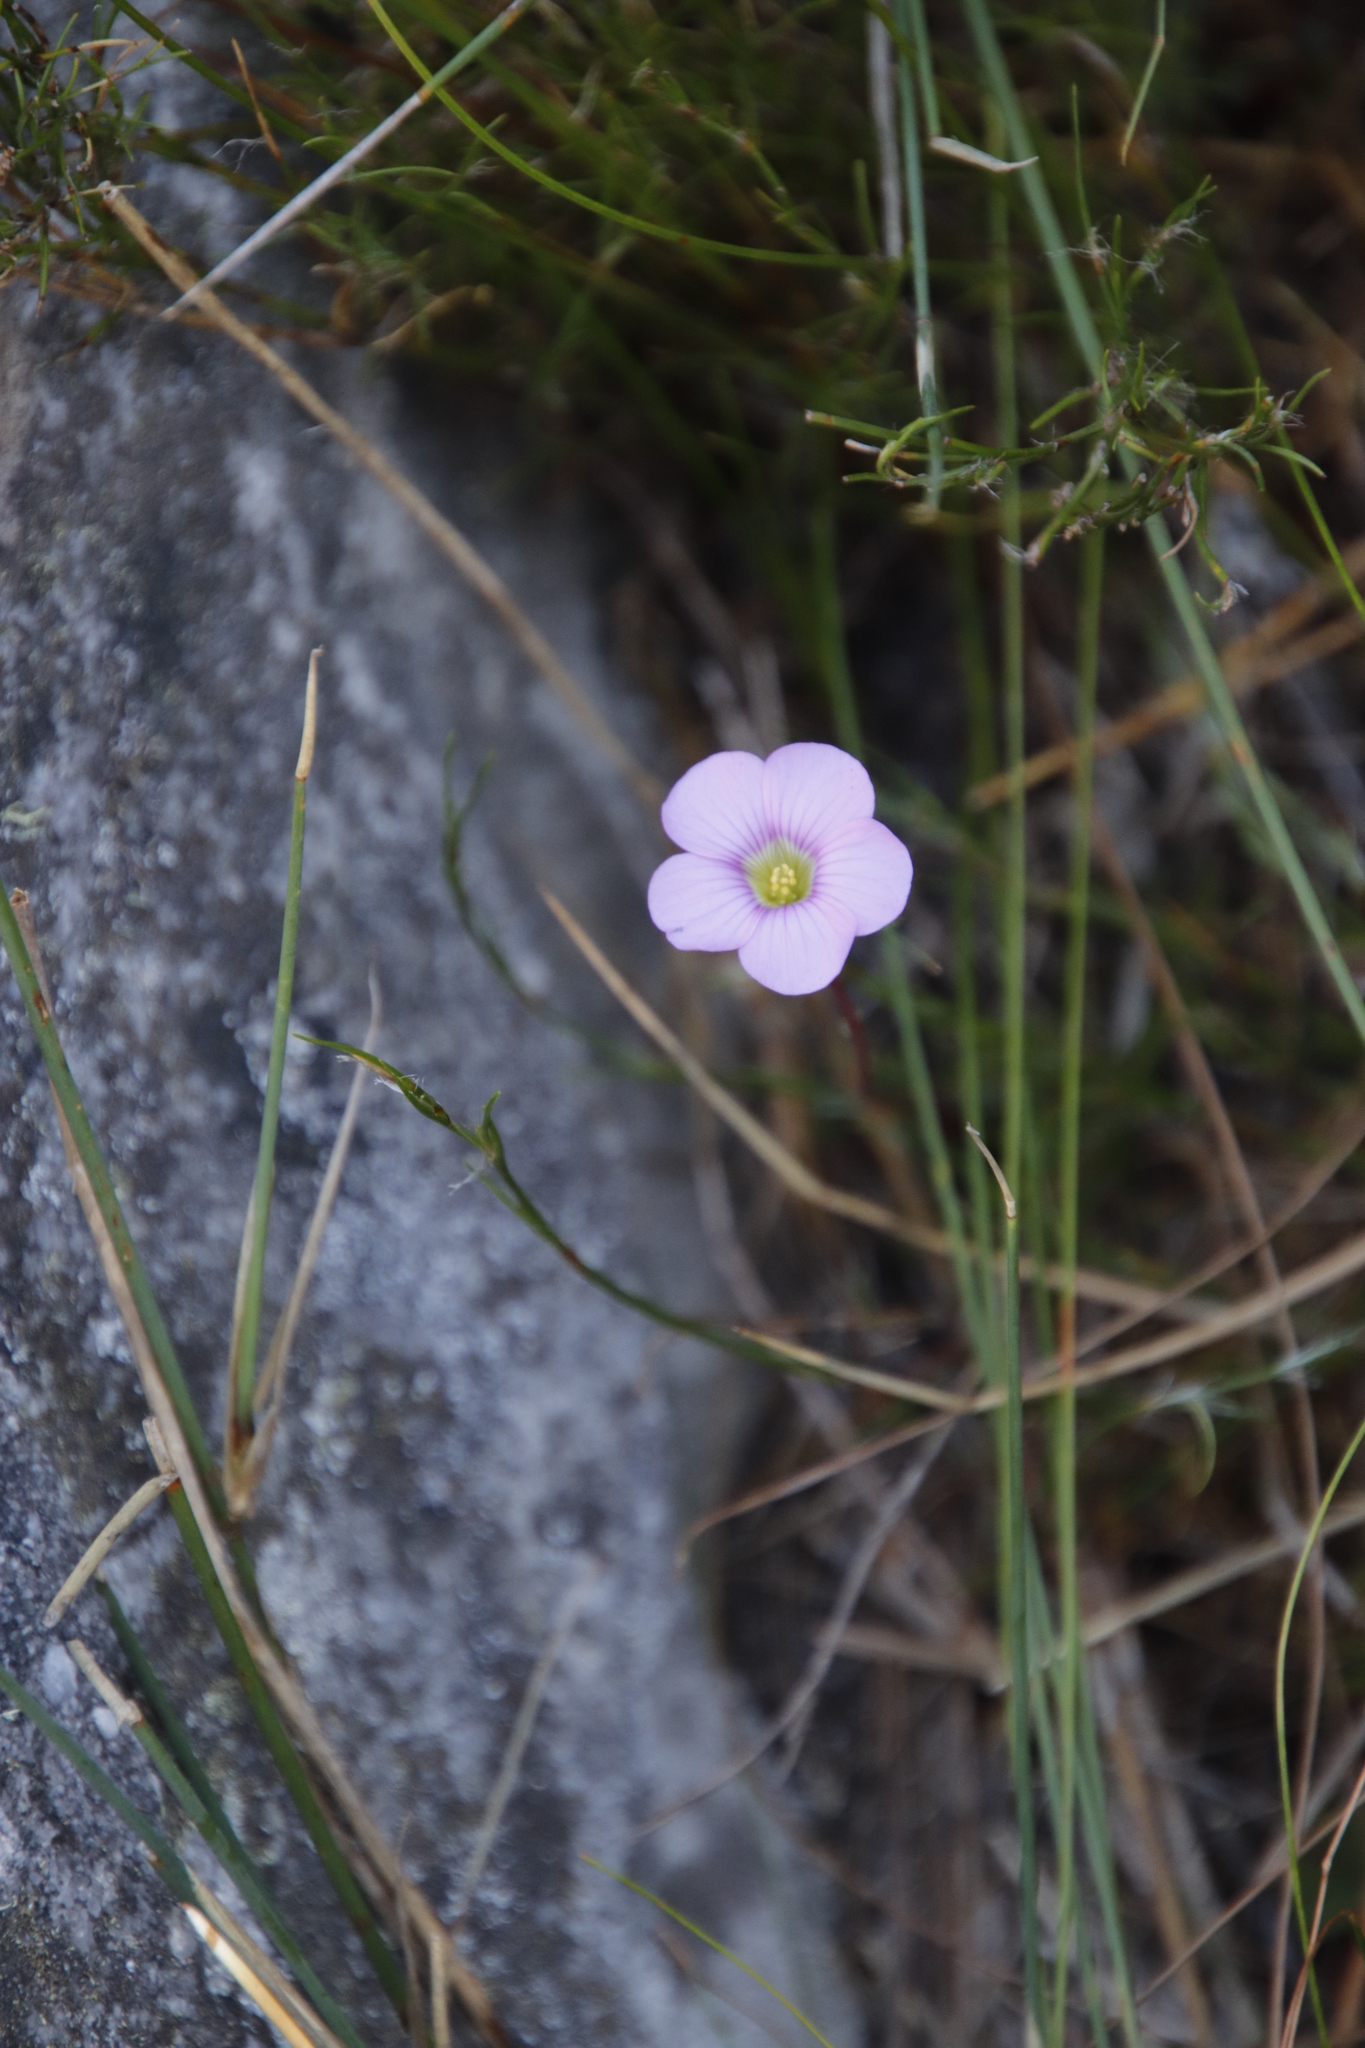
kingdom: Plantae
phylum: Tracheophyta
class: Magnoliopsida
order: Oxalidales
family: Oxalidaceae
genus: Oxalis
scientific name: Oxalis commutata
